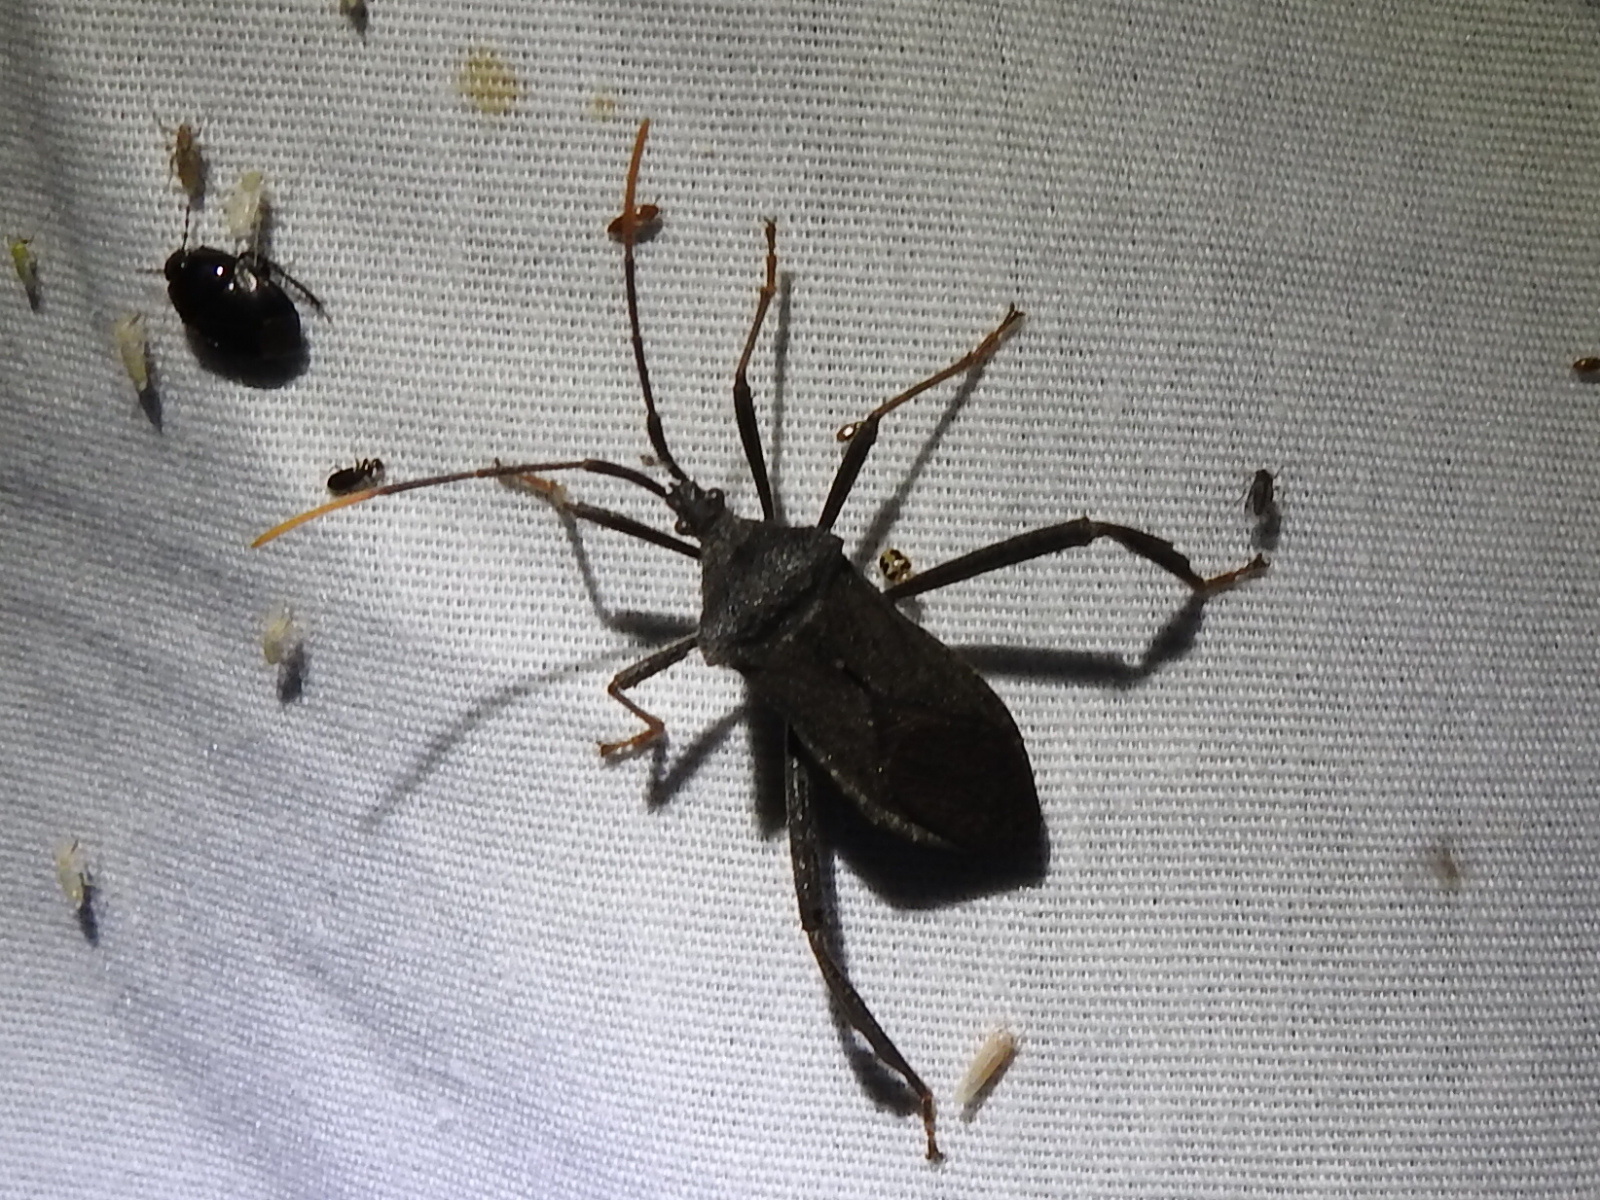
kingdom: Animalia
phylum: Arthropoda
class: Insecta
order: Hemiptera
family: Coreidae
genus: Acanthocephala
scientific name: Acanthocephala terminalis
